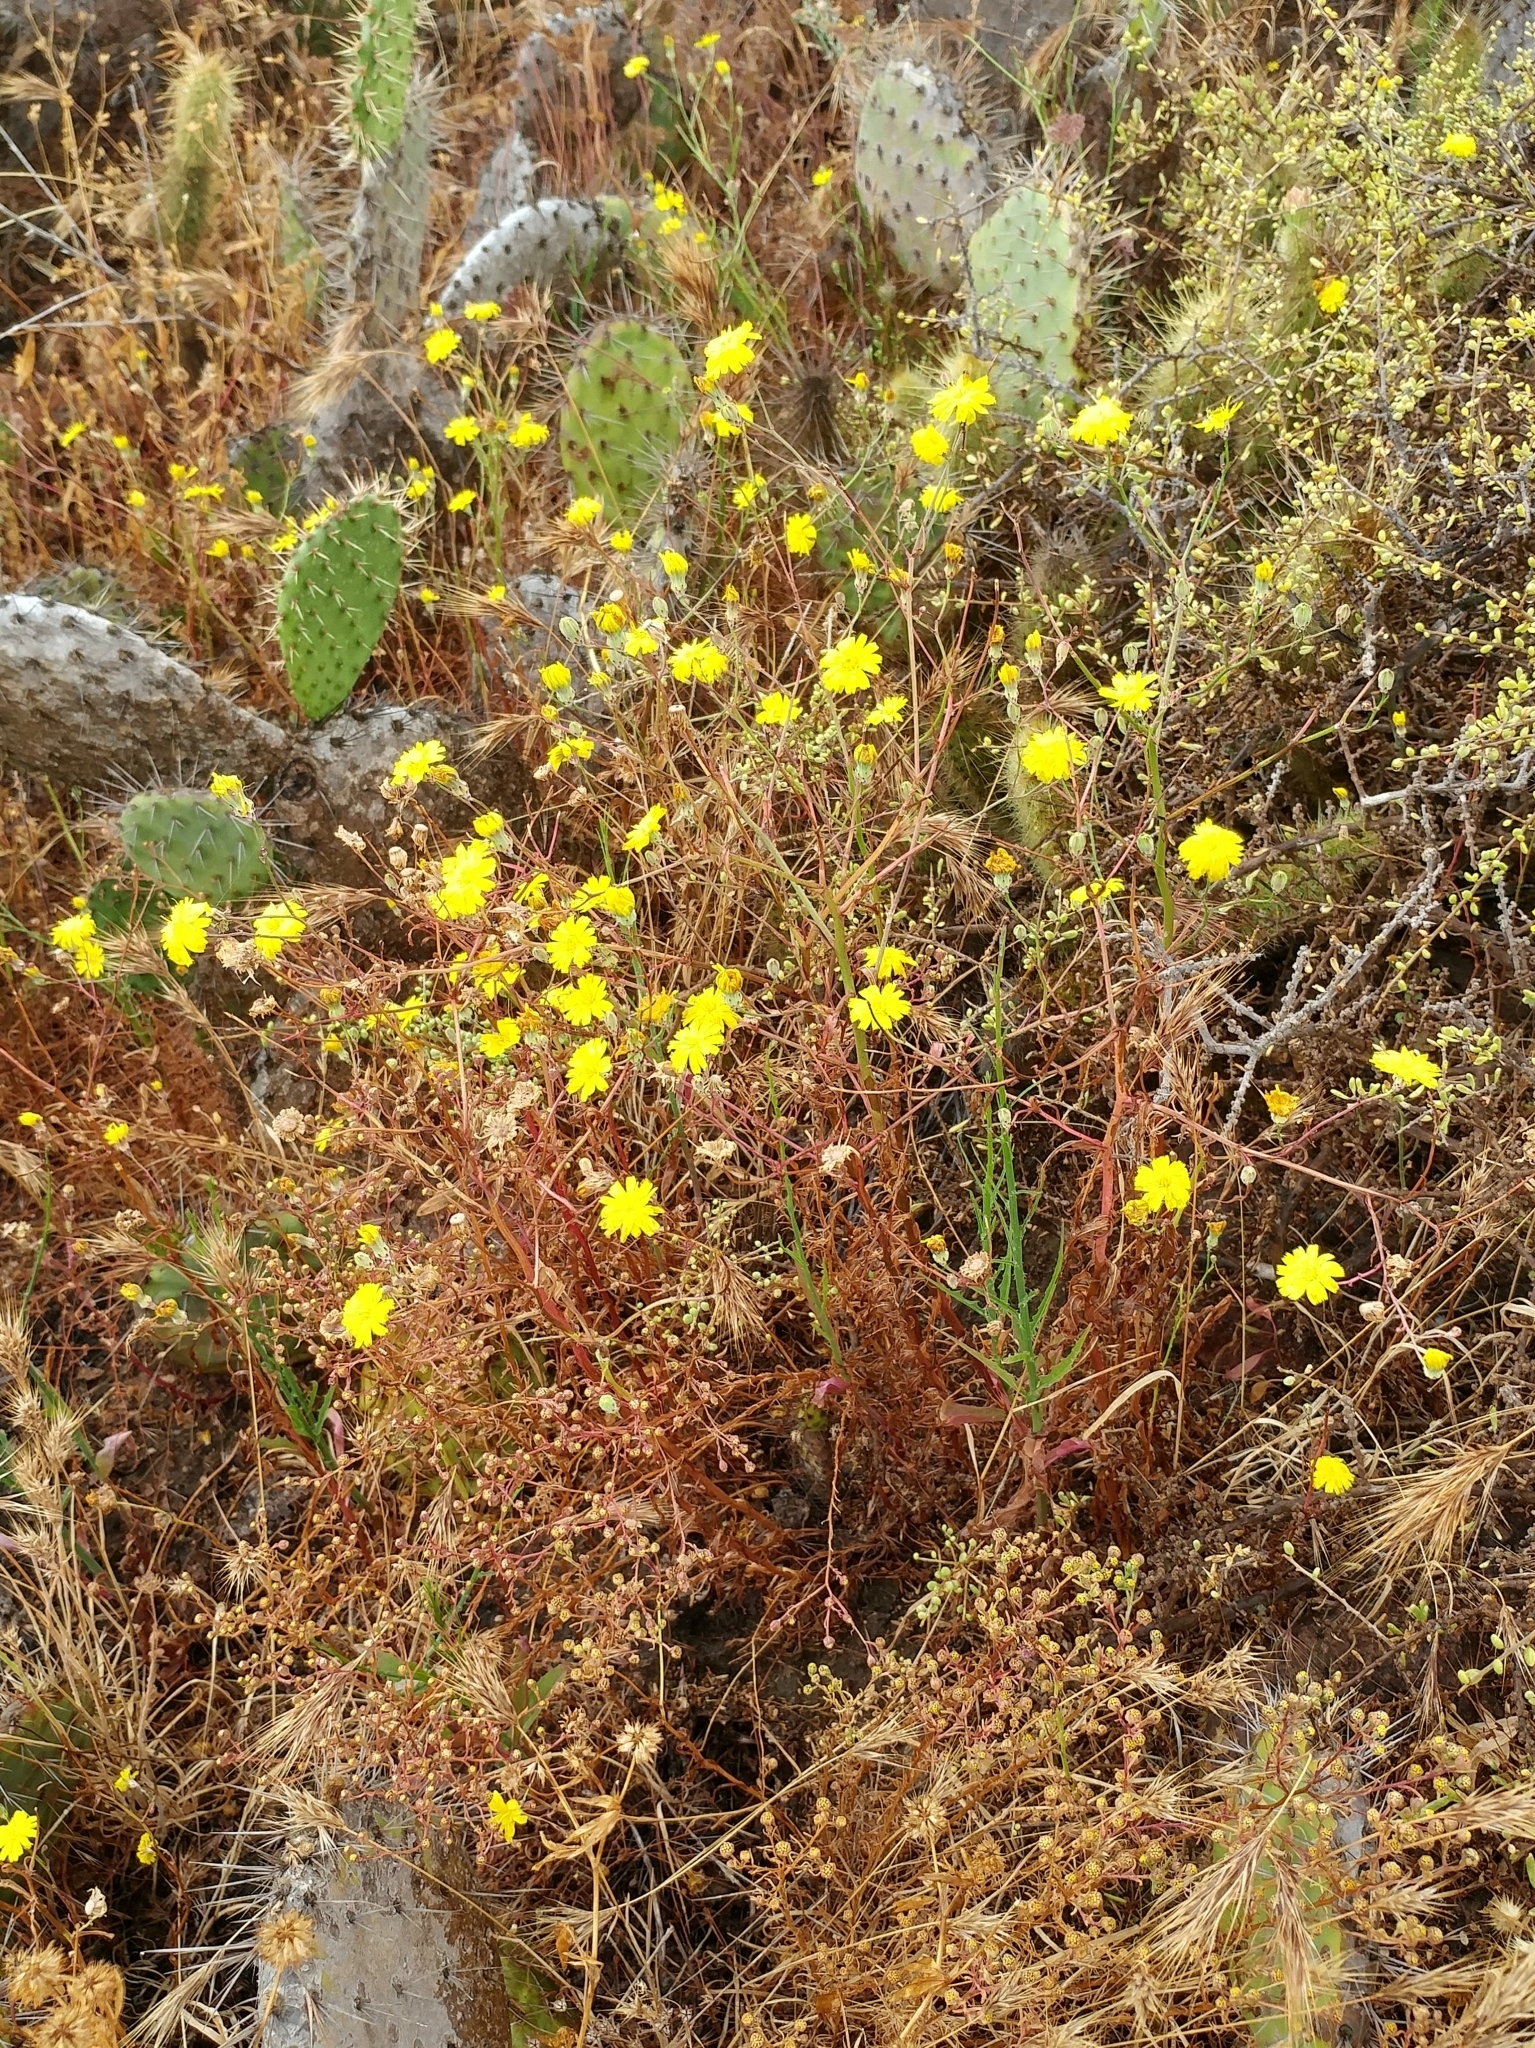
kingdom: Plantae
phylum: Tracheophyta
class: Magnoliopsida
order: Asterales
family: Asteraceae
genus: Malacothrix
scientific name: Malacothrix foliosa
